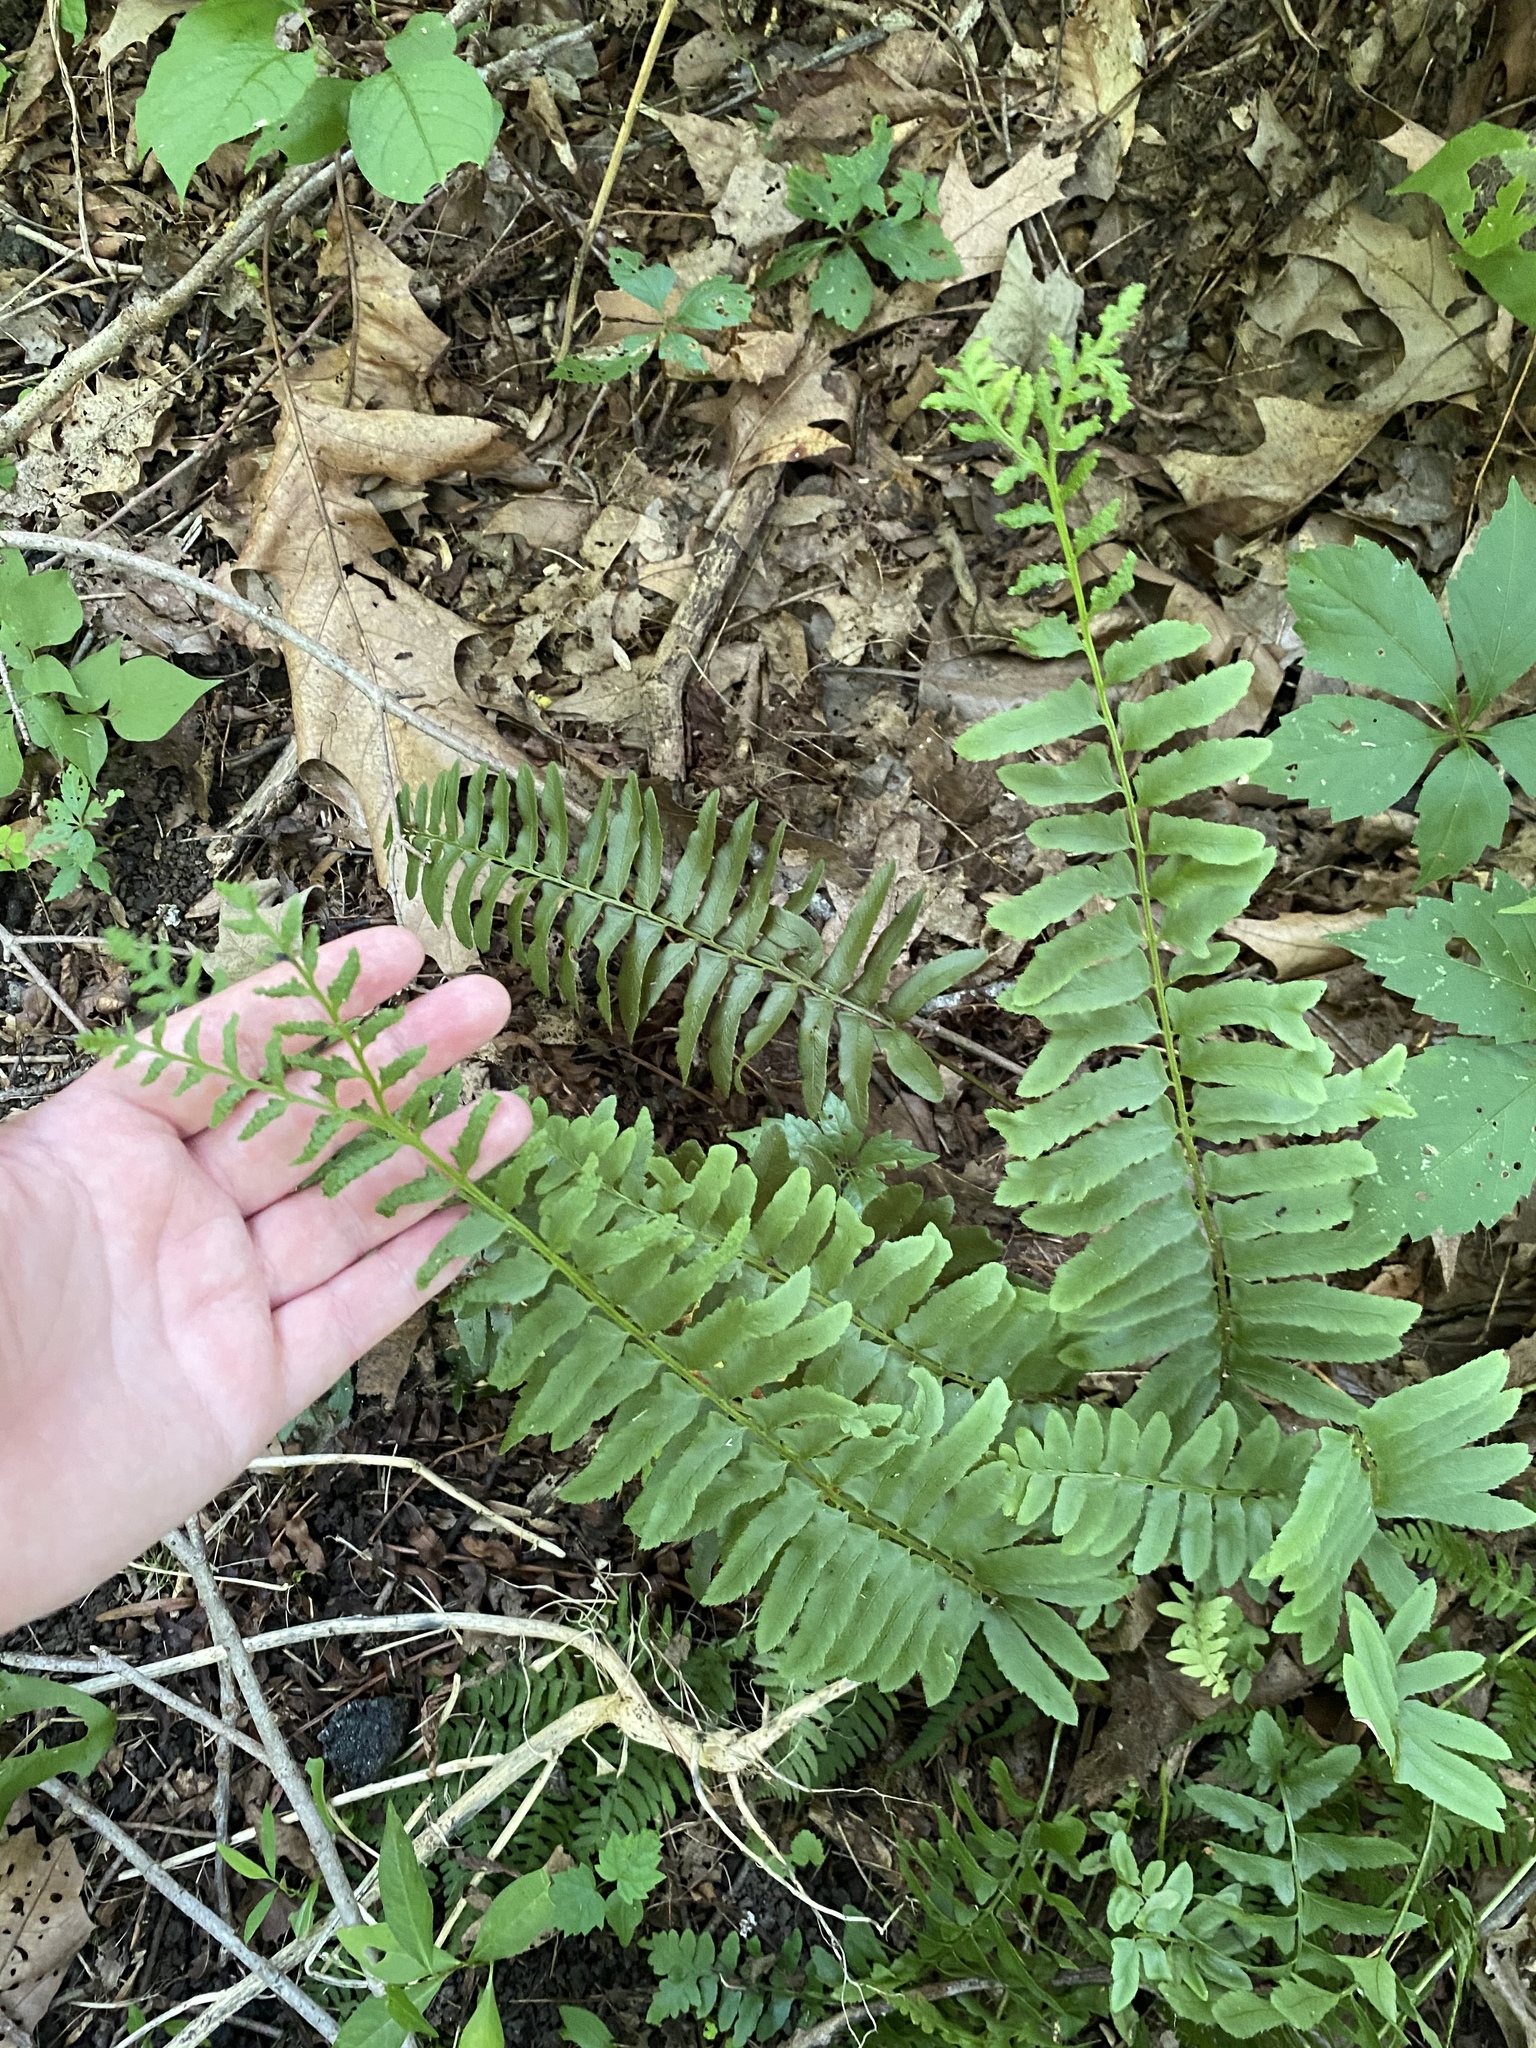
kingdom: Plantae
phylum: Tracheophyta
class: Polypodiopsida
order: Polypodiales
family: Dryopteridaceae
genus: Polystichum
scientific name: Polystichum acrostichoides
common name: Christmas fern
